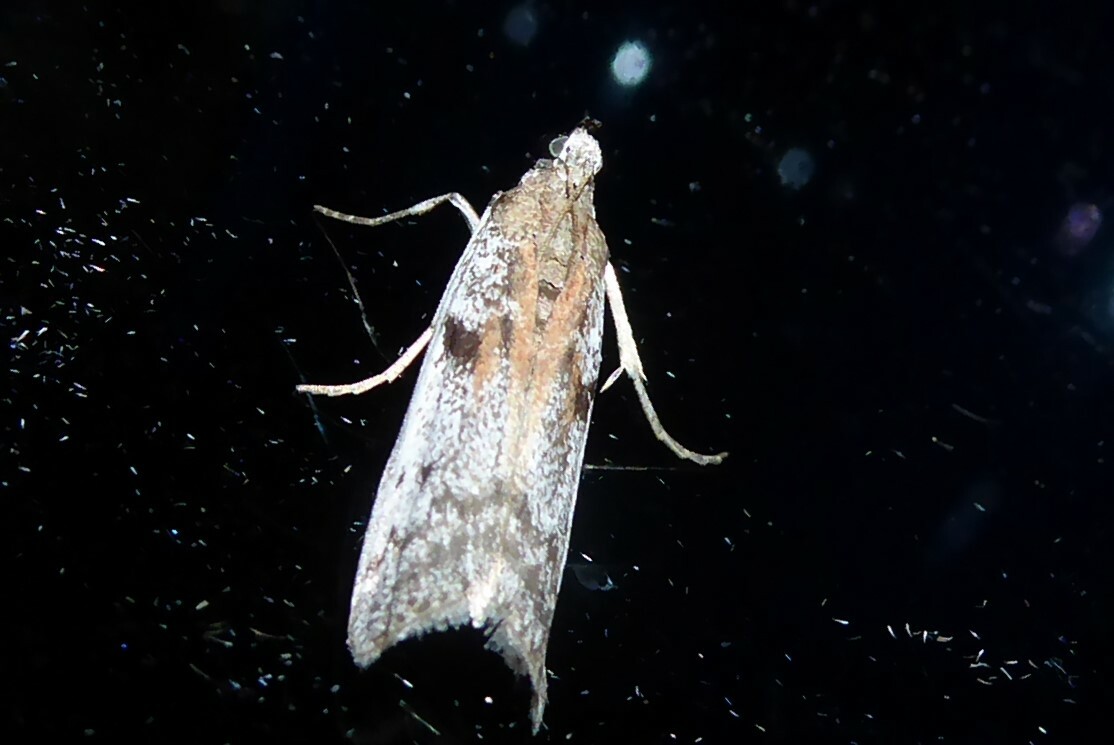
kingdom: Animalia
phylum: Arthropoda
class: Insecta
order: Lepidoptera
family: Pyralidae
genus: Patagoniodes
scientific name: Patagoniodes farinaria
